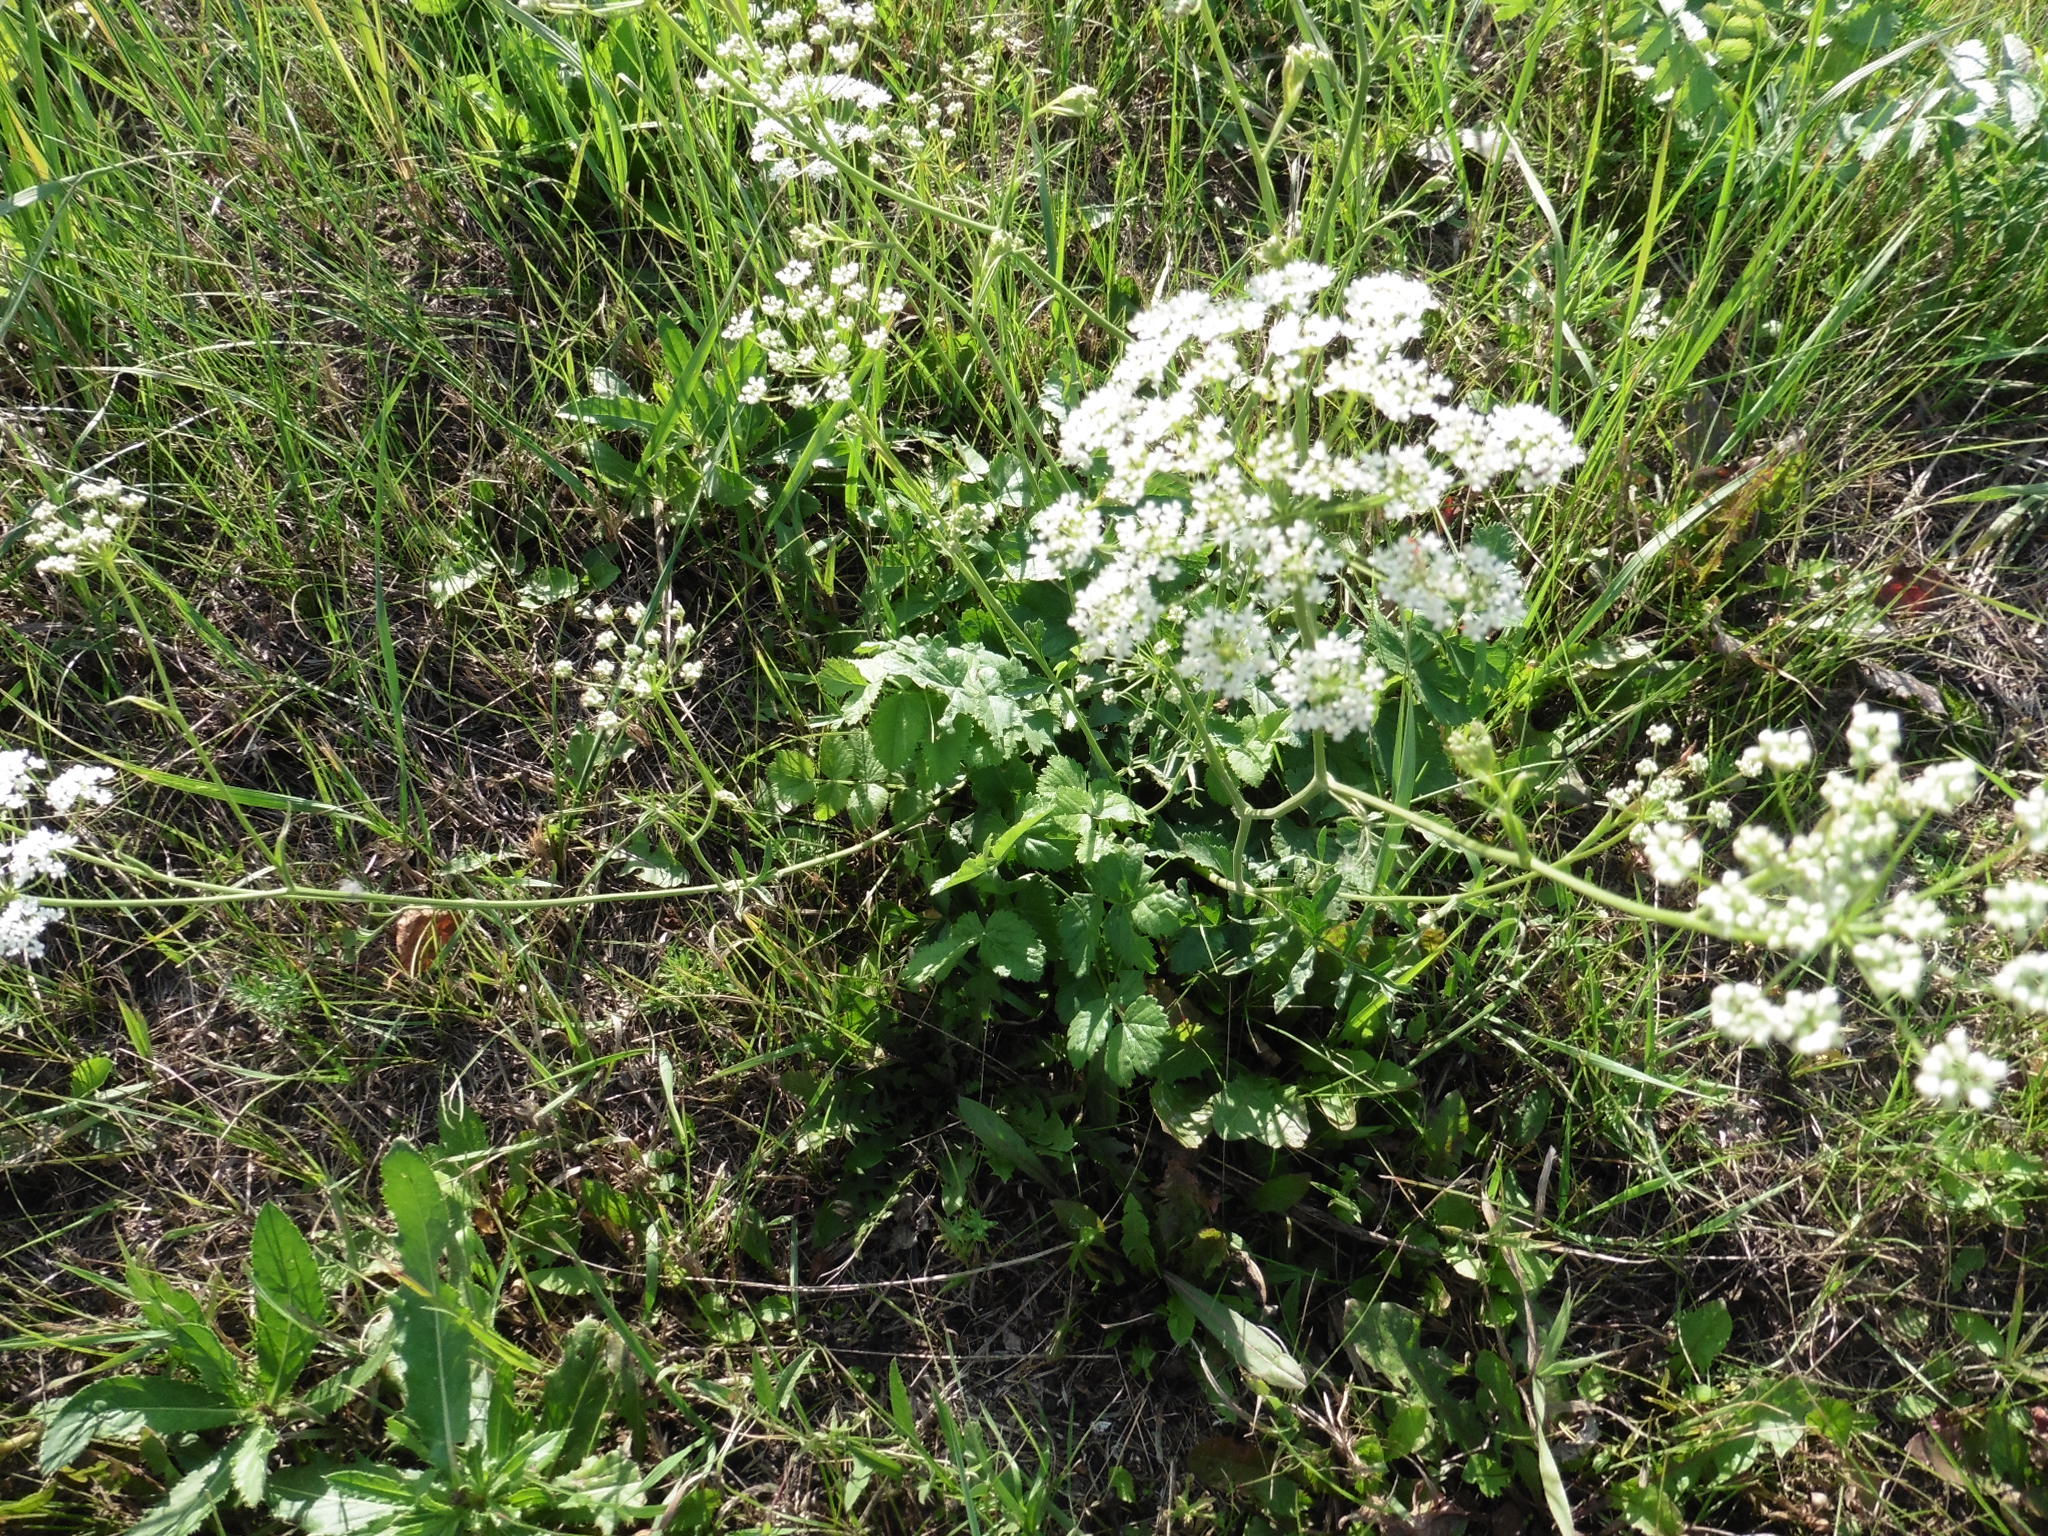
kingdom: Plantae
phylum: Tracheophyta
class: Magnoliopsida
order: Apiales
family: Apiaceae
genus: Pimpinella
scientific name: Pimpinella saxifraga
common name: Burnet-saxifrage
